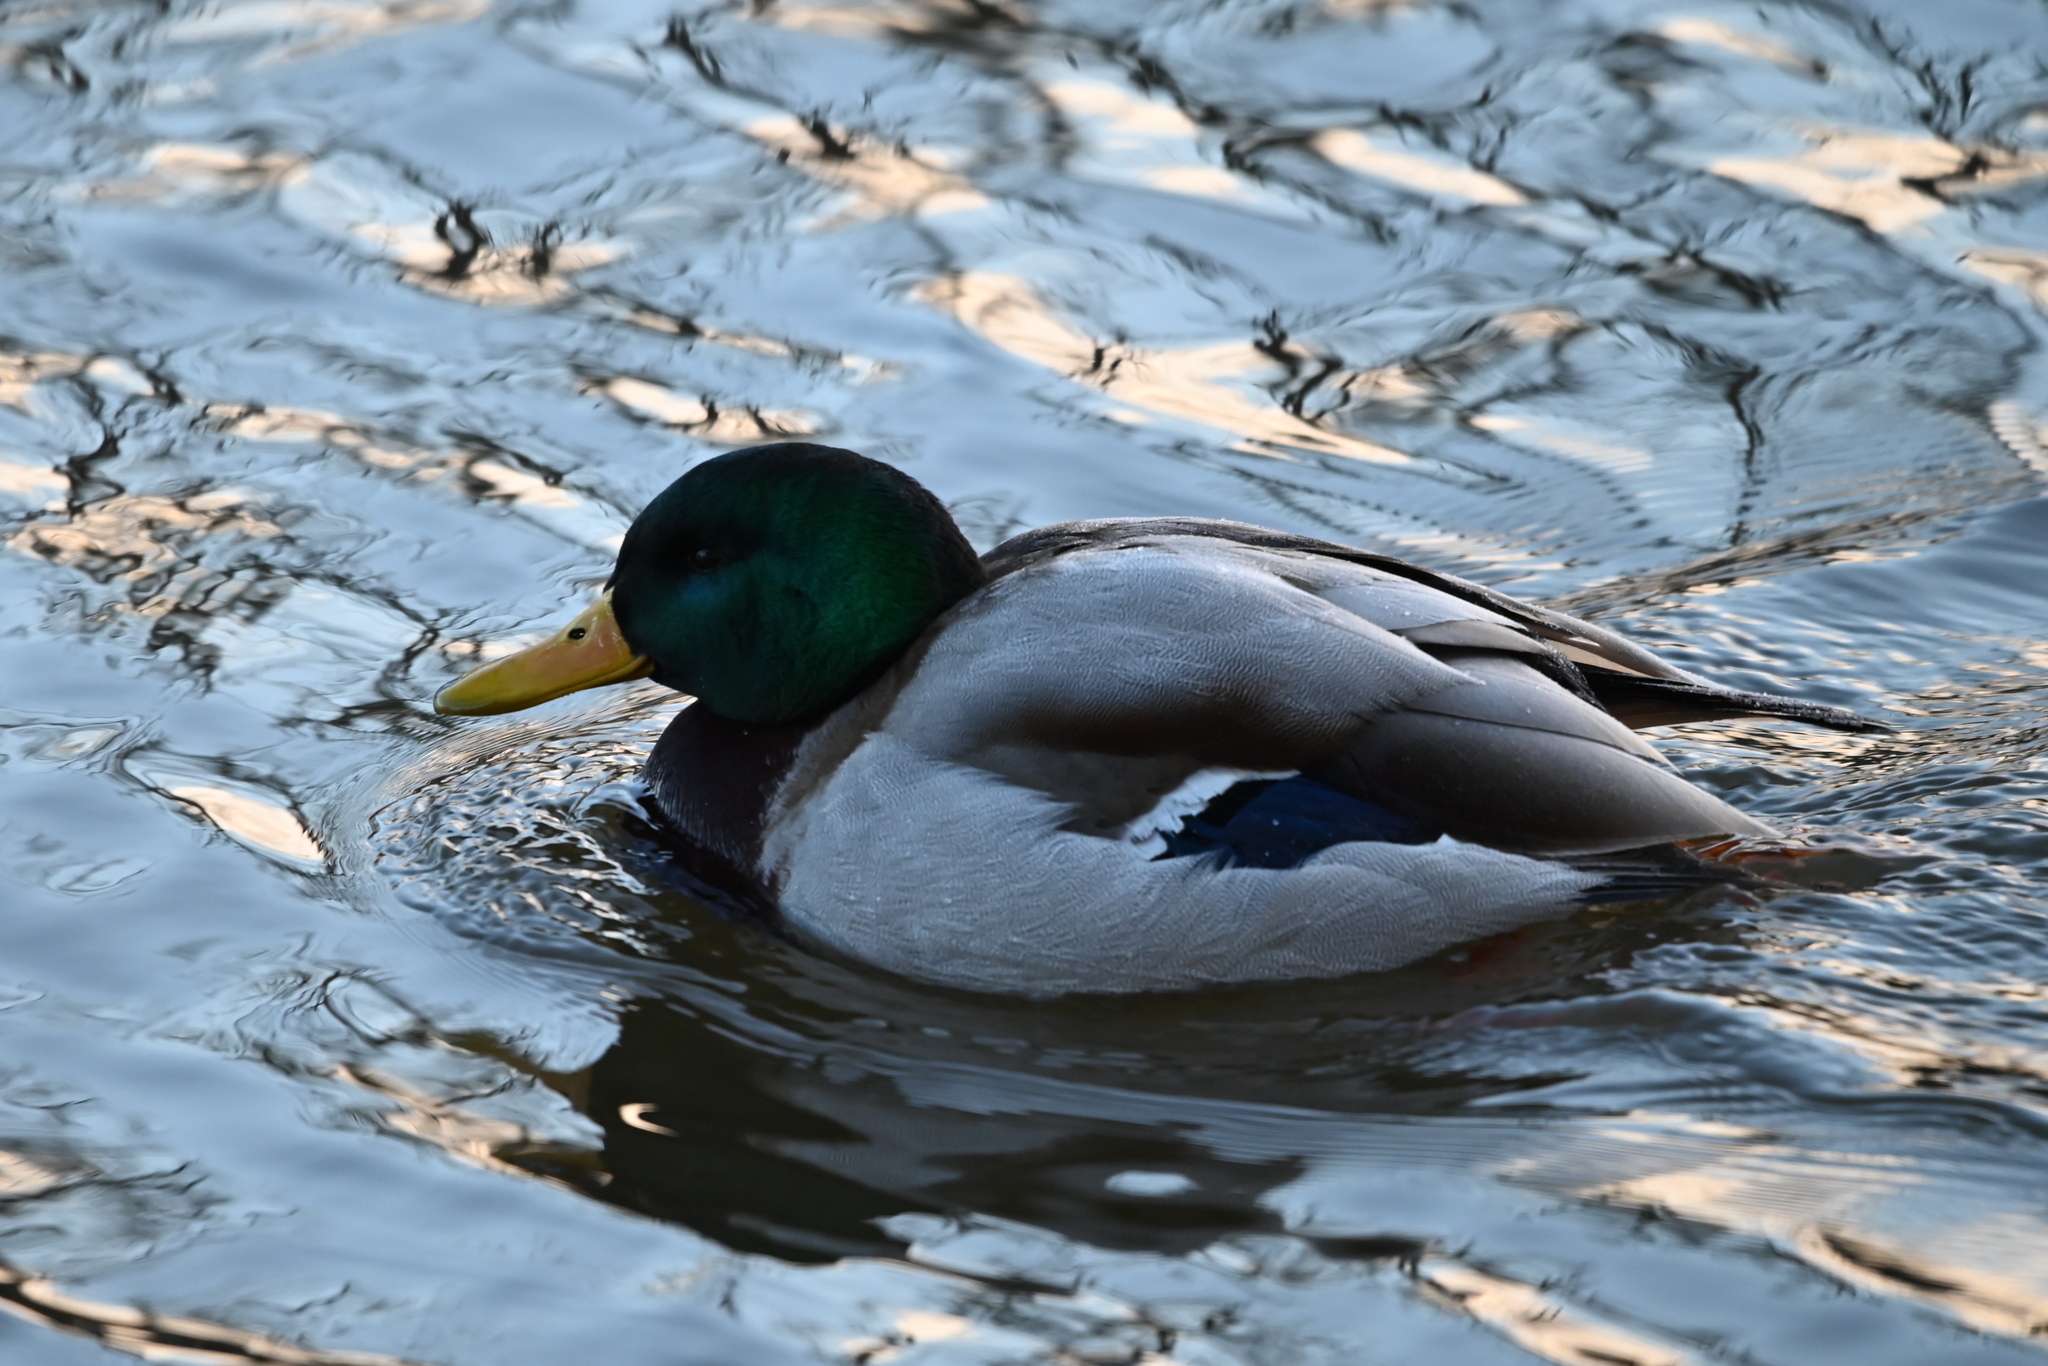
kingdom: Animalia
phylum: Chordata
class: Aves
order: Anseriformes
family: Anatidae
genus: Anas
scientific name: Anas platyrhynchos
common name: Mallard
